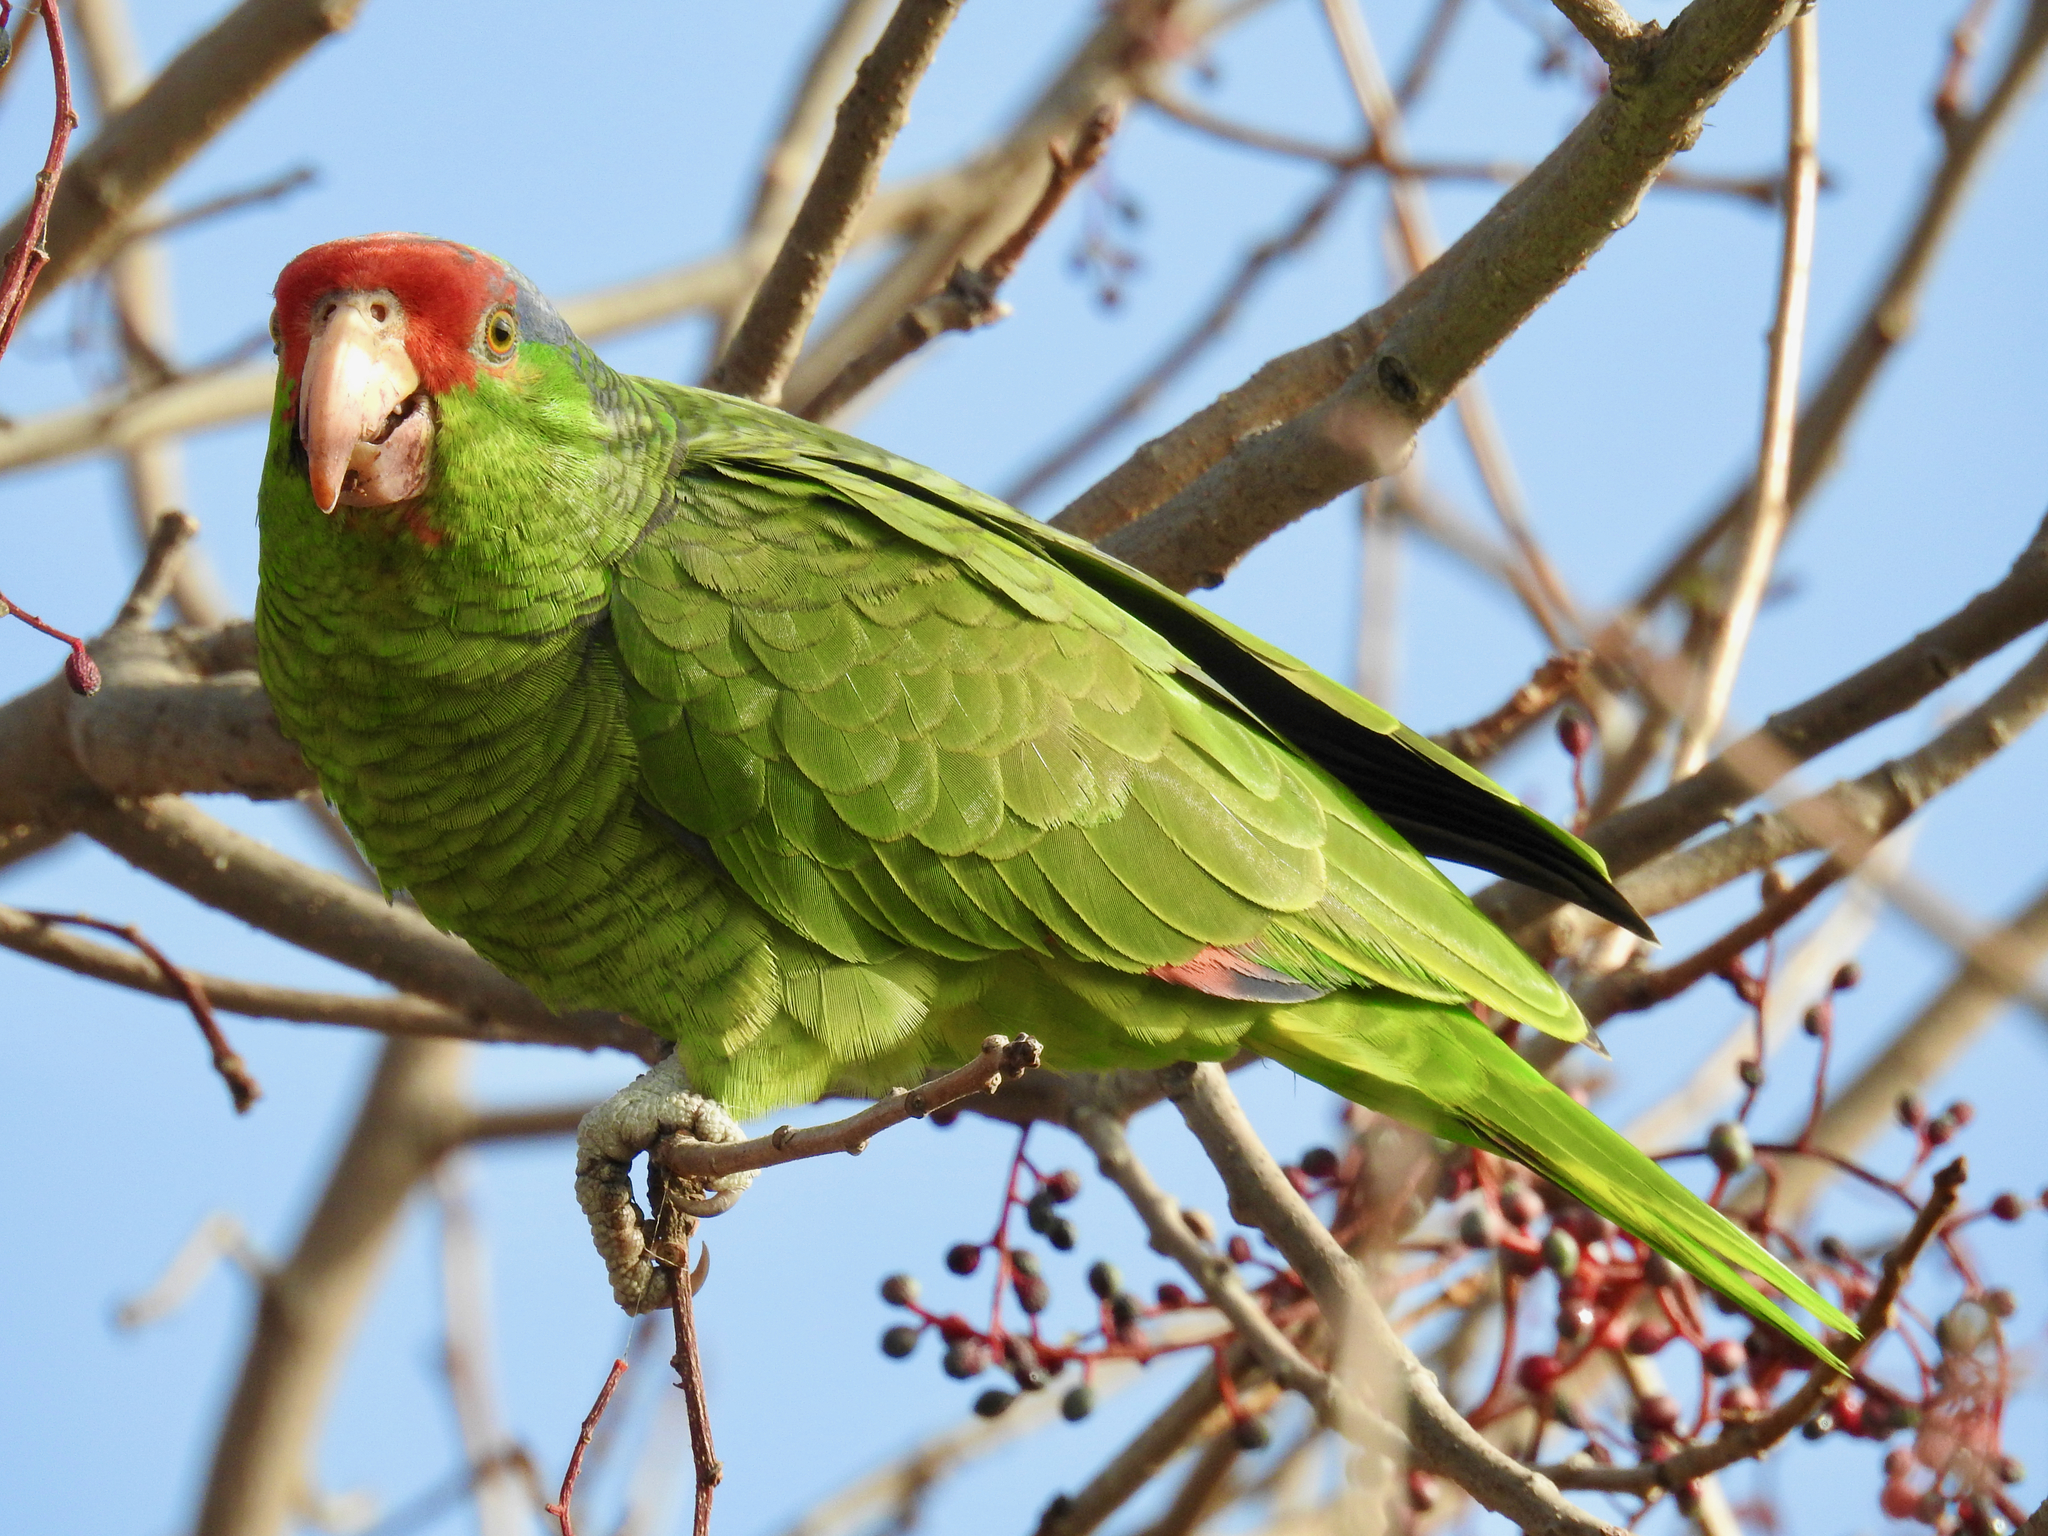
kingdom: Animalia
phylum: Chordata
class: Aves
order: Psittaciformes
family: Psittacidae
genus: Amazona
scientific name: Amazona viridigenalis
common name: Red-crowned amazon
